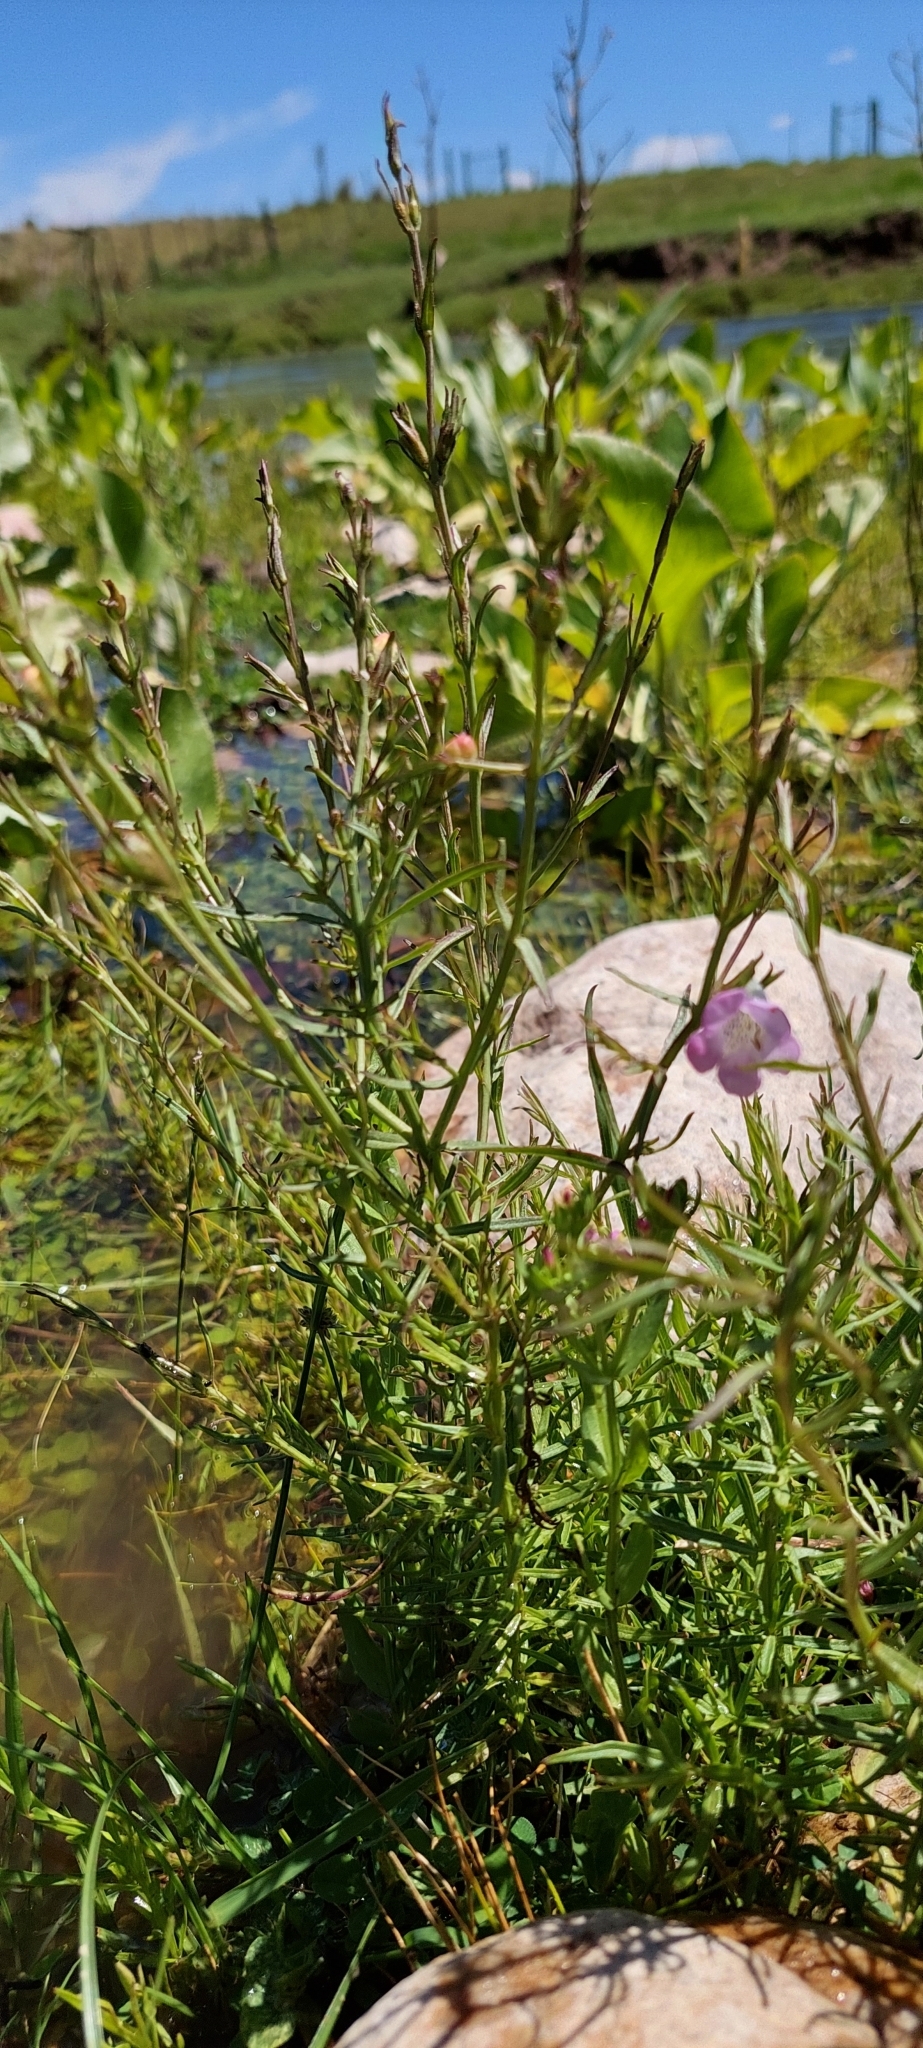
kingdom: Plantae
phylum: Tracheophyta
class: Magnoliopsida
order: Lamiales
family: Orobanchaceae
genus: Agalinis
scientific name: Agalinis communis
